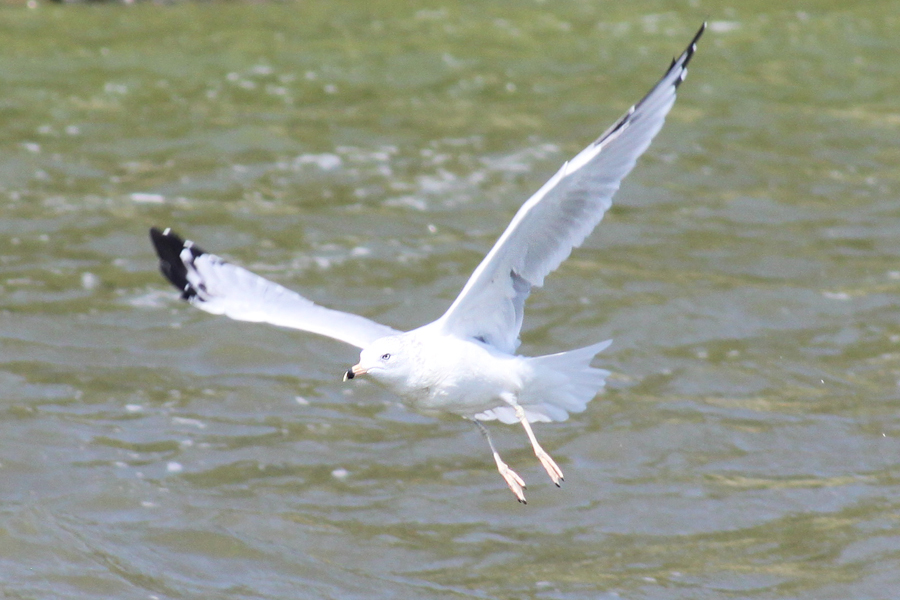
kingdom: Animalia
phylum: Chordata
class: Aves
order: Charadriiformes
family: Laridae
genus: Larus
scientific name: Larus delawarensis
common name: Ring-billed gull
